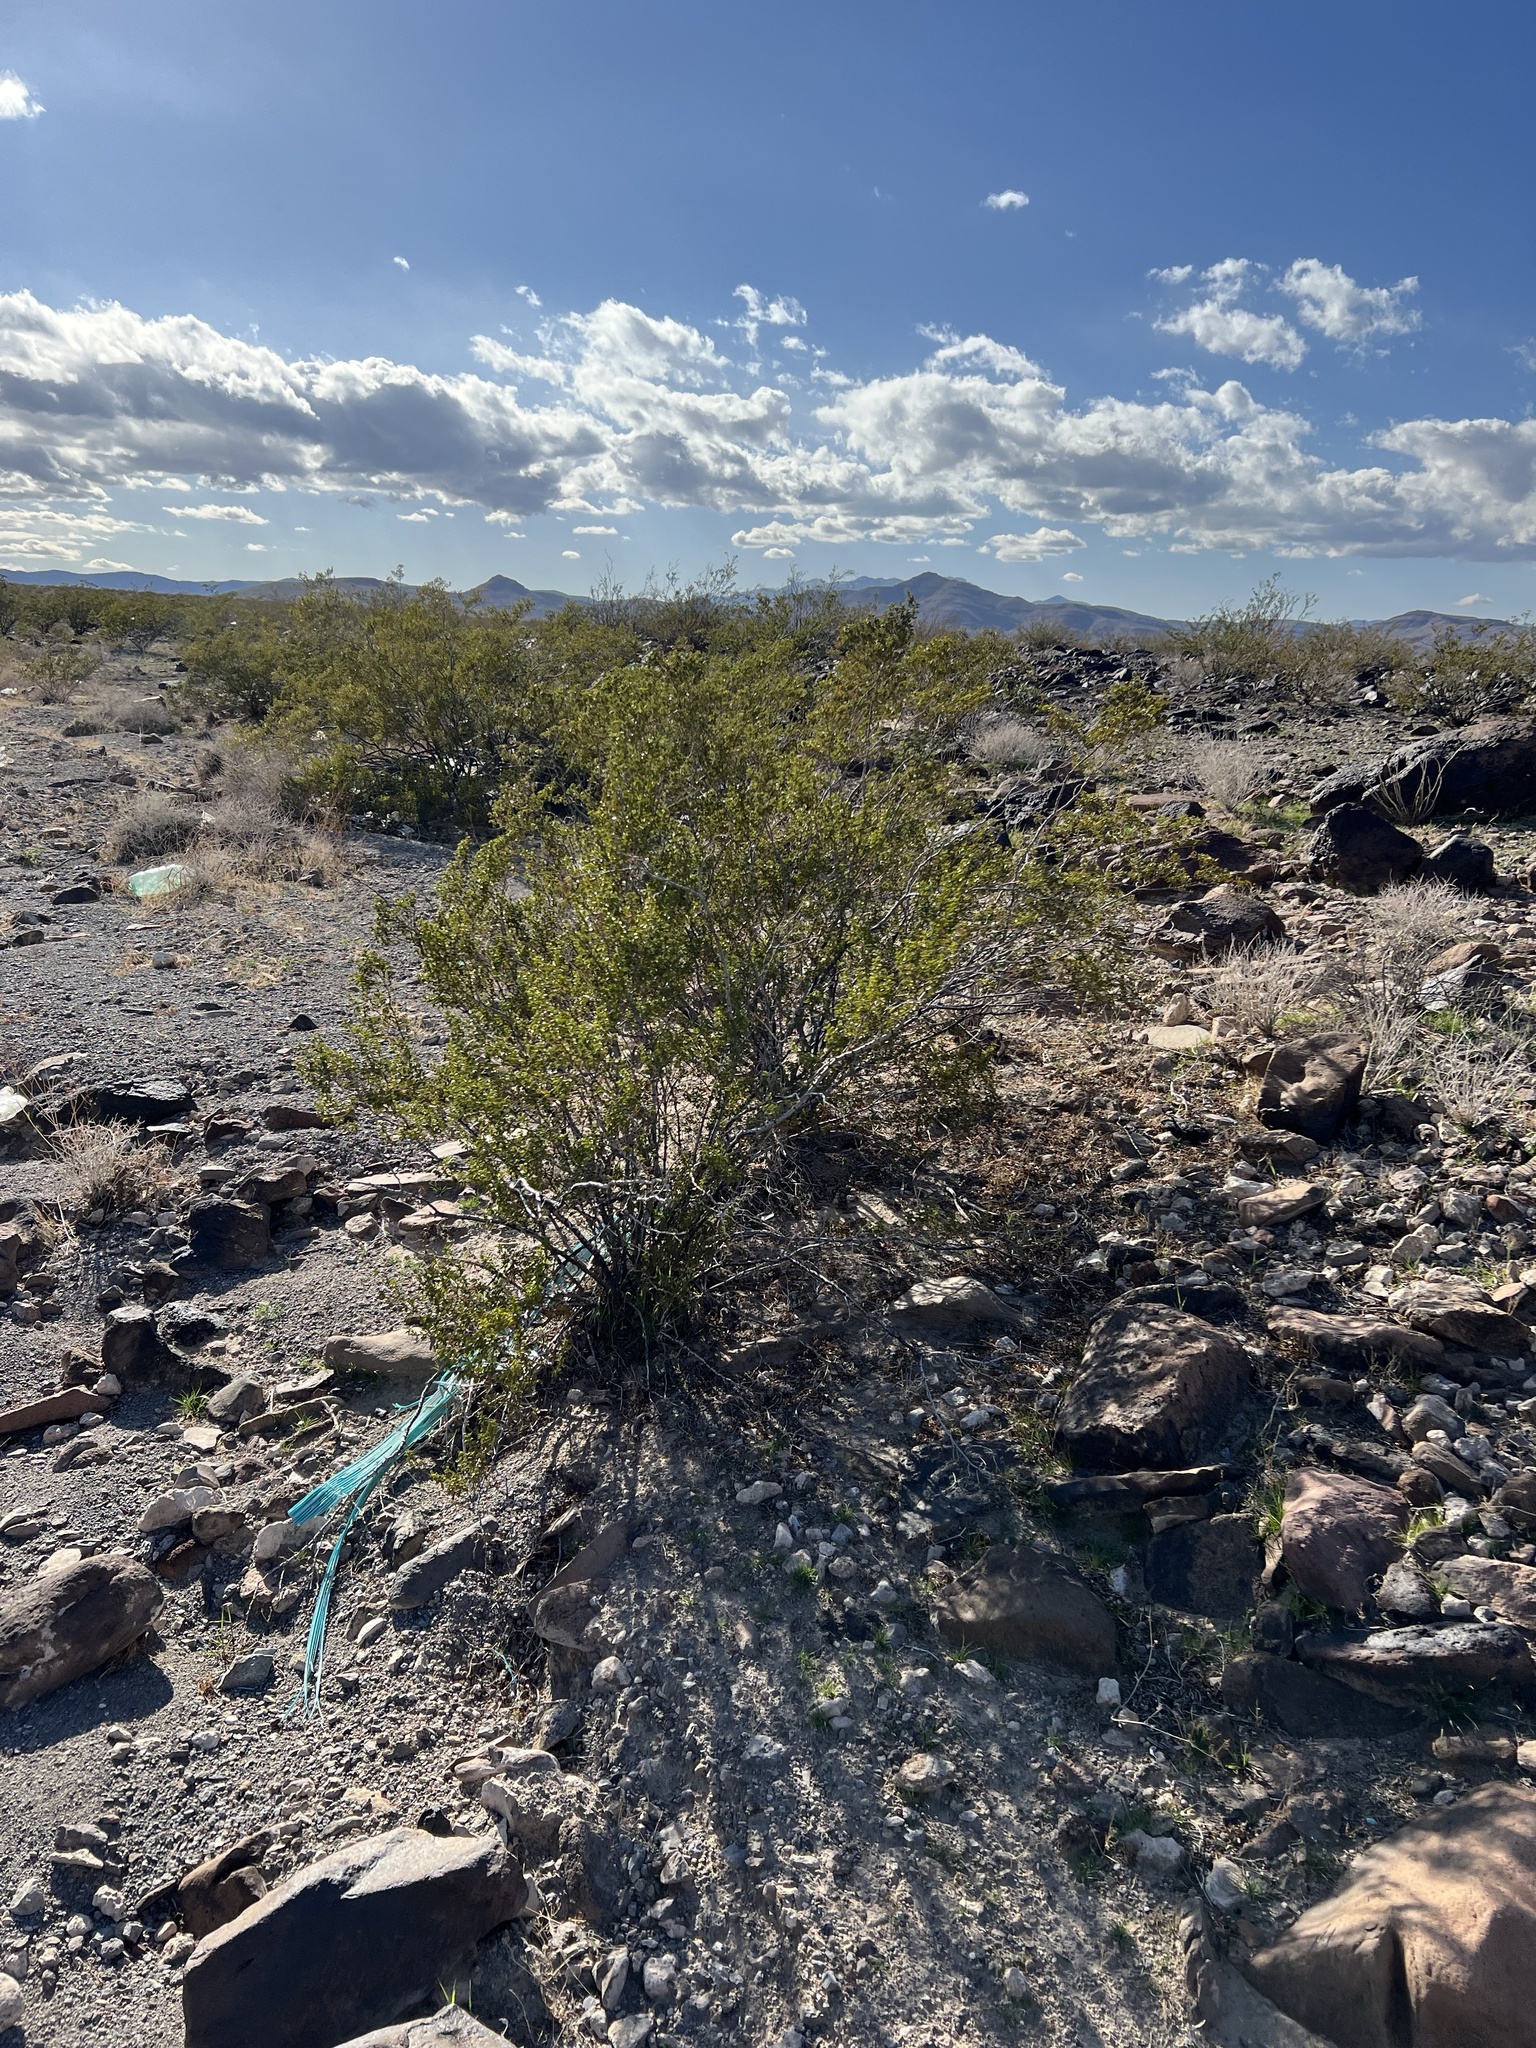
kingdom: Plantae
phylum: Tracheophyta
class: Magnoliopsida
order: Zygophyllales
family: Zygophyllaceae
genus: Larrea
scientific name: Larrea tridentata
